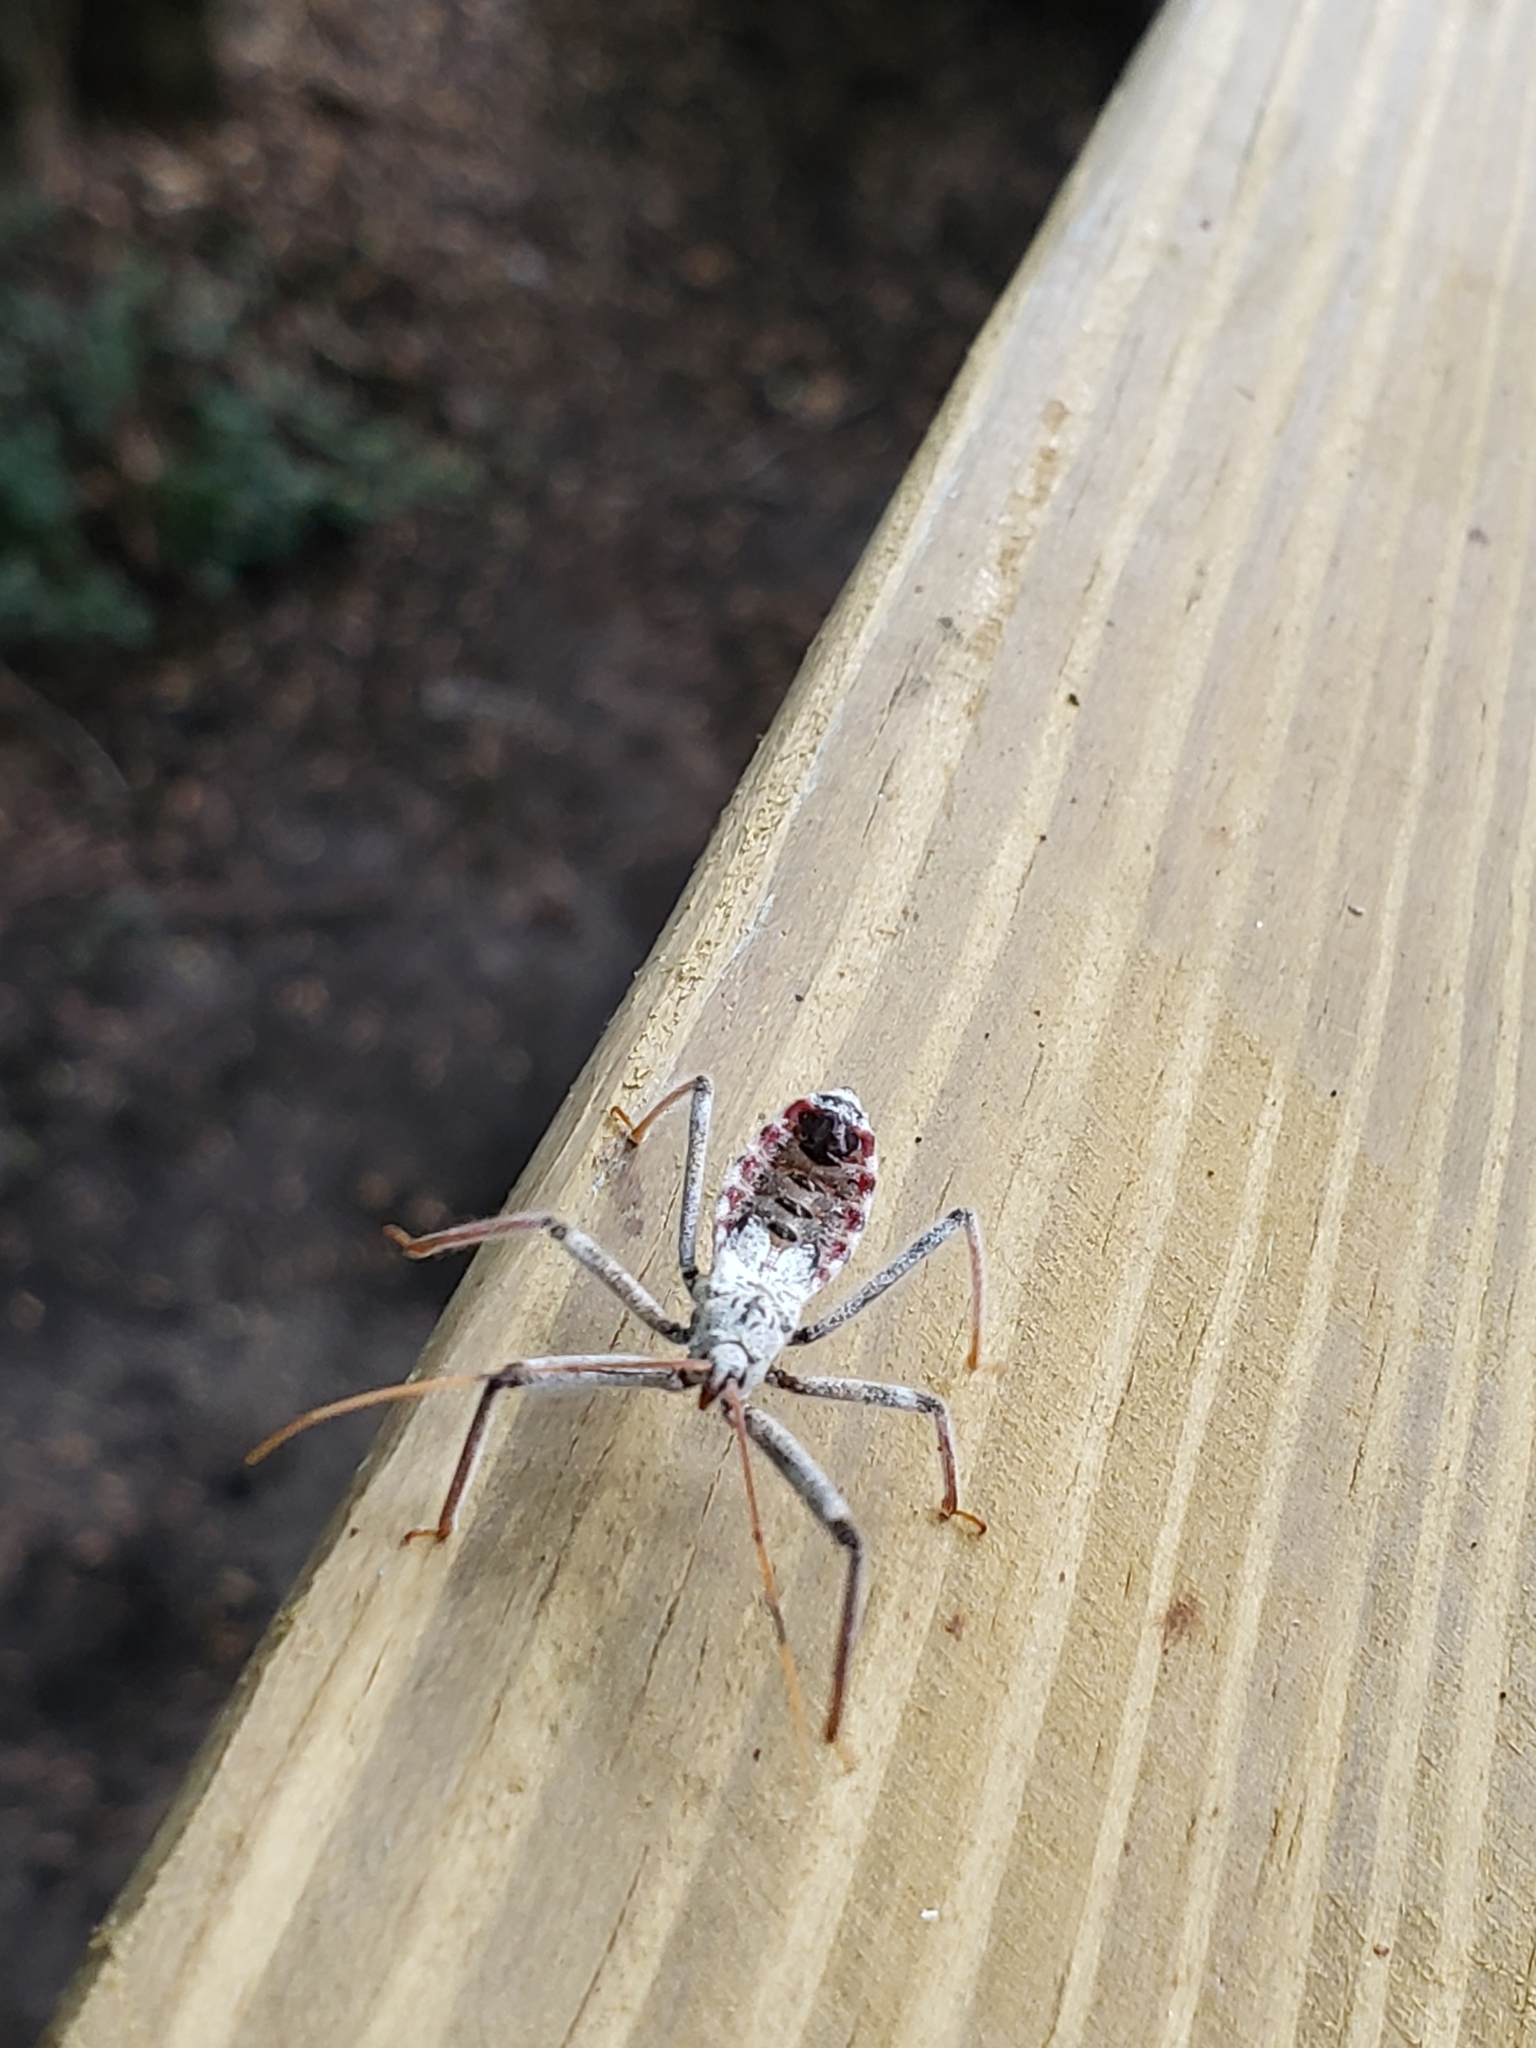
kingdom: Animalia
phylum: Arthropoda
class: Insecta
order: Hemiptera
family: Reduviidae
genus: Arilus
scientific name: Arilus cristatus
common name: North american wheel bug
